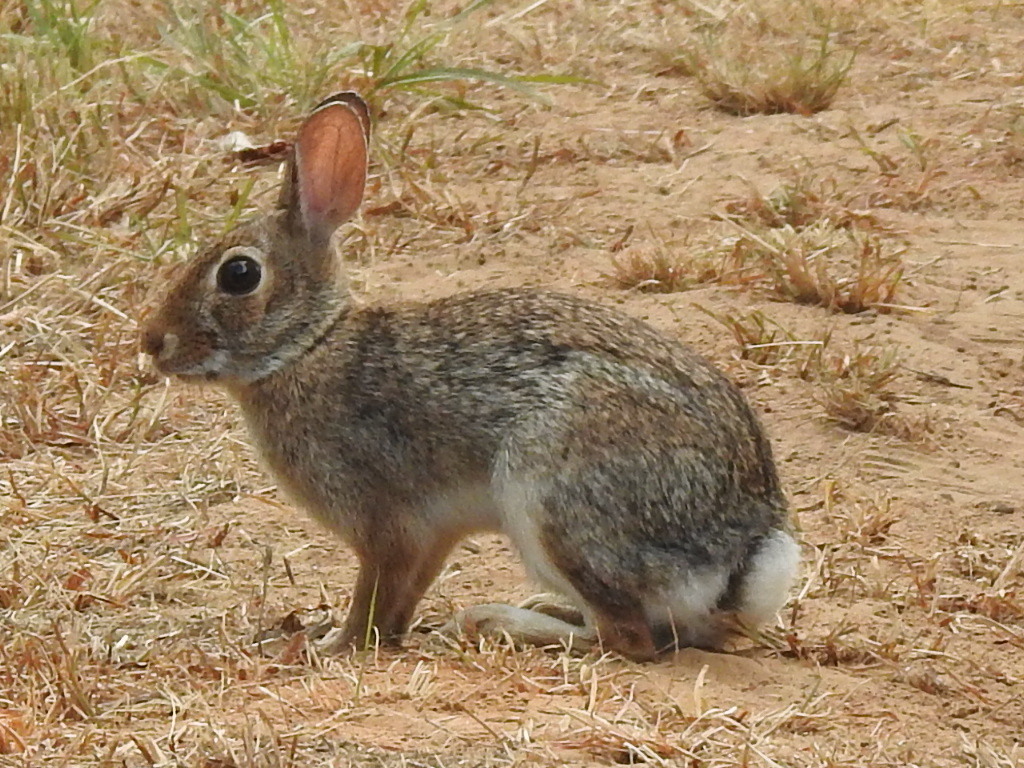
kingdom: Animalia
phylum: Chordata
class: Mammalia
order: Lagomorpha
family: Leporidae
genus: Sylvilagus
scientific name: Sylvilagus floridanus
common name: Eastern cottontail
